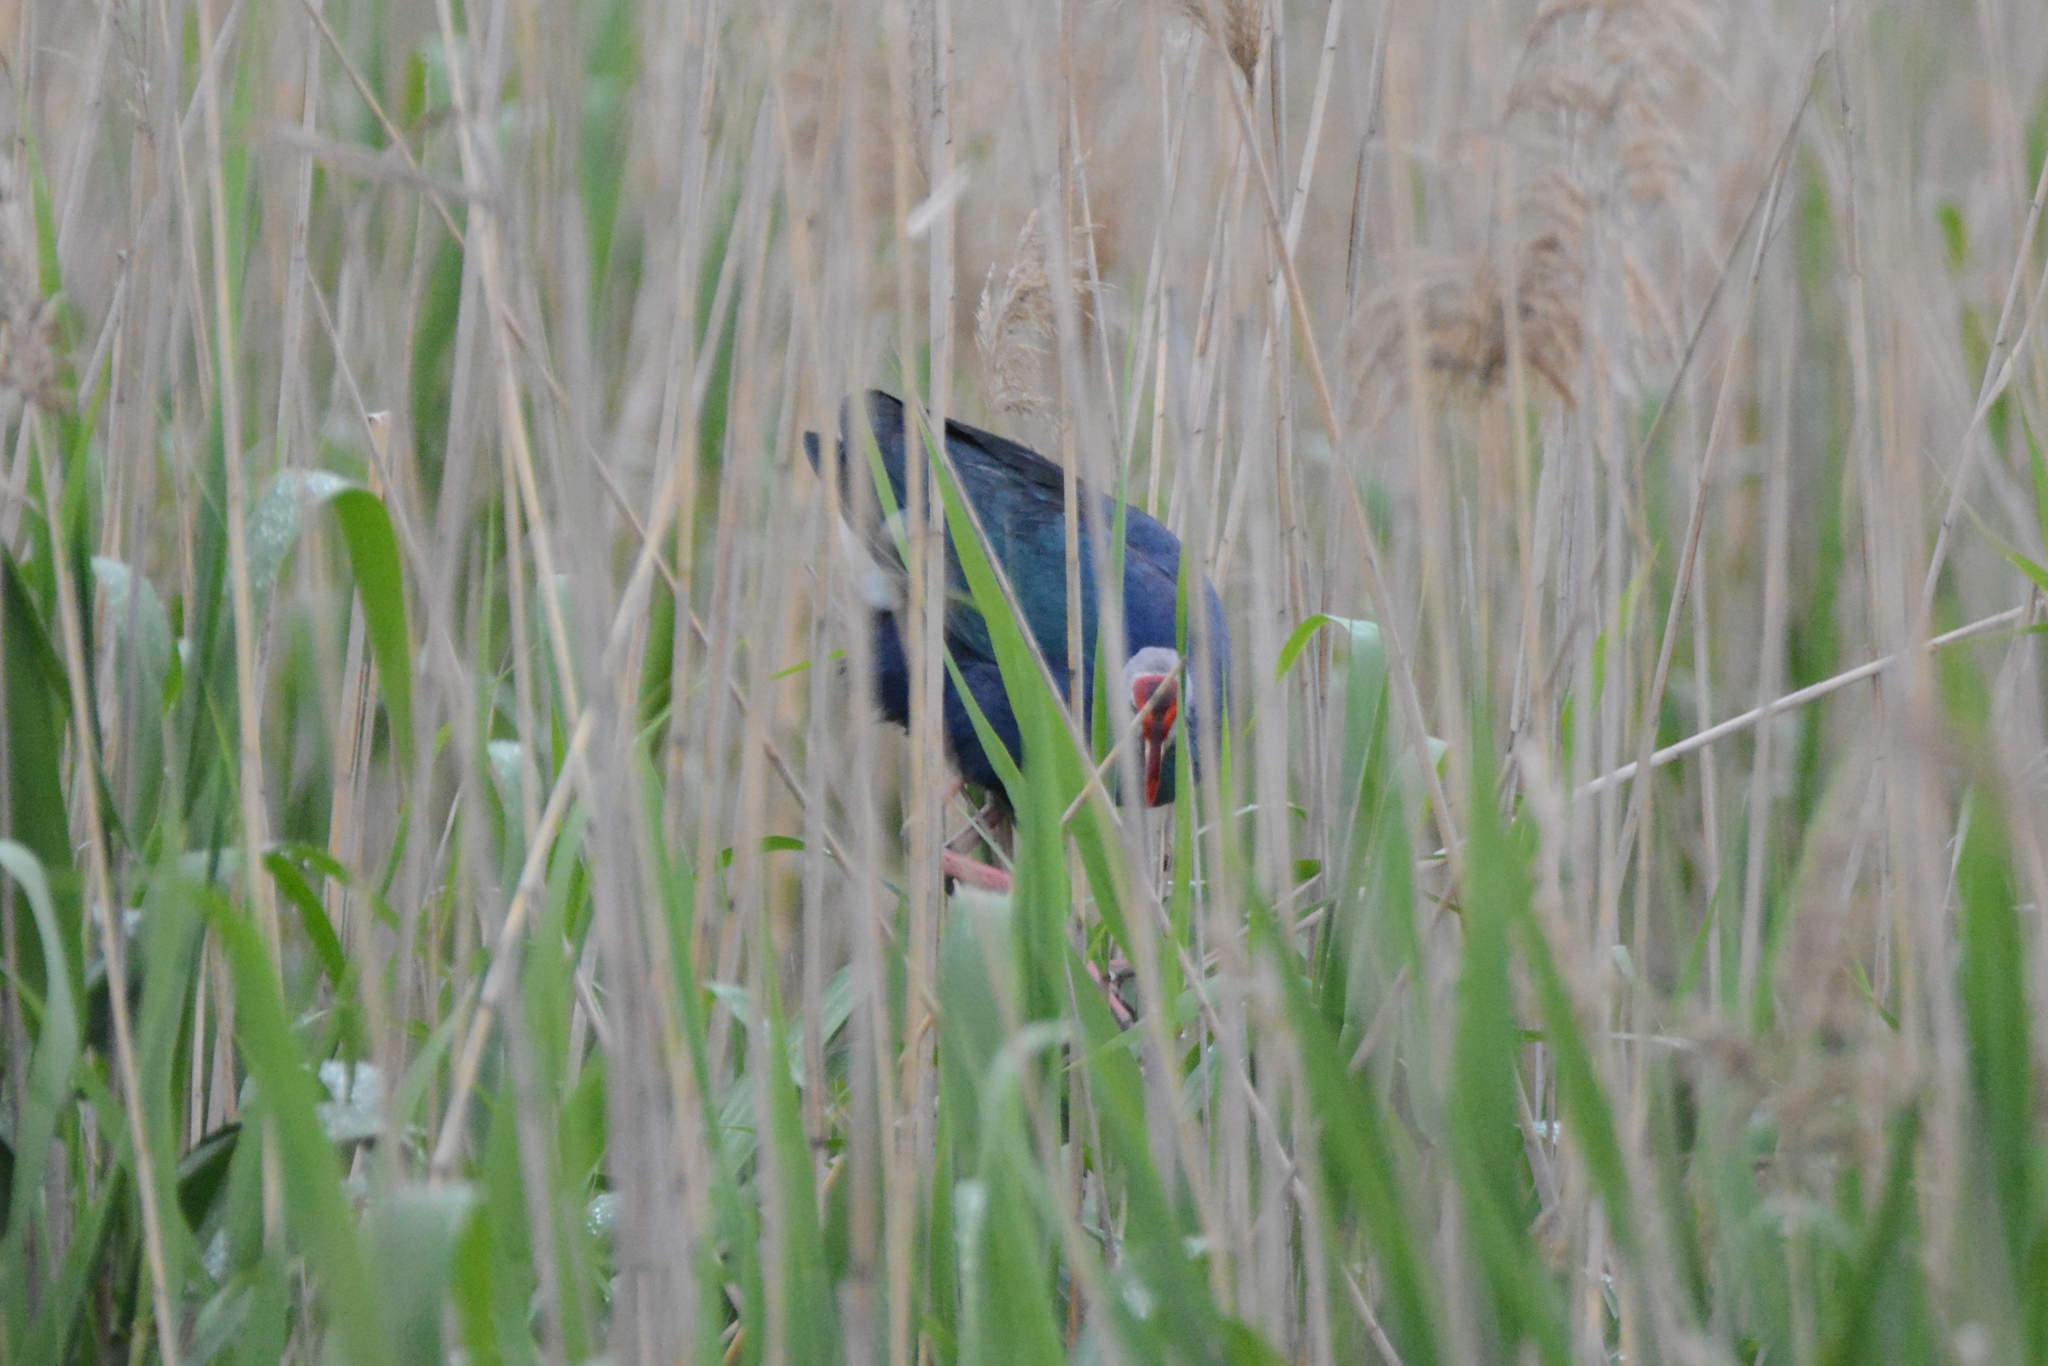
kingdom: Animalia
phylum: Chordata
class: Aves
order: Gruiformes
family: Rallidae
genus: Porphyrio
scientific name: Porphyrio porphyrio
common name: Purple swamphen
